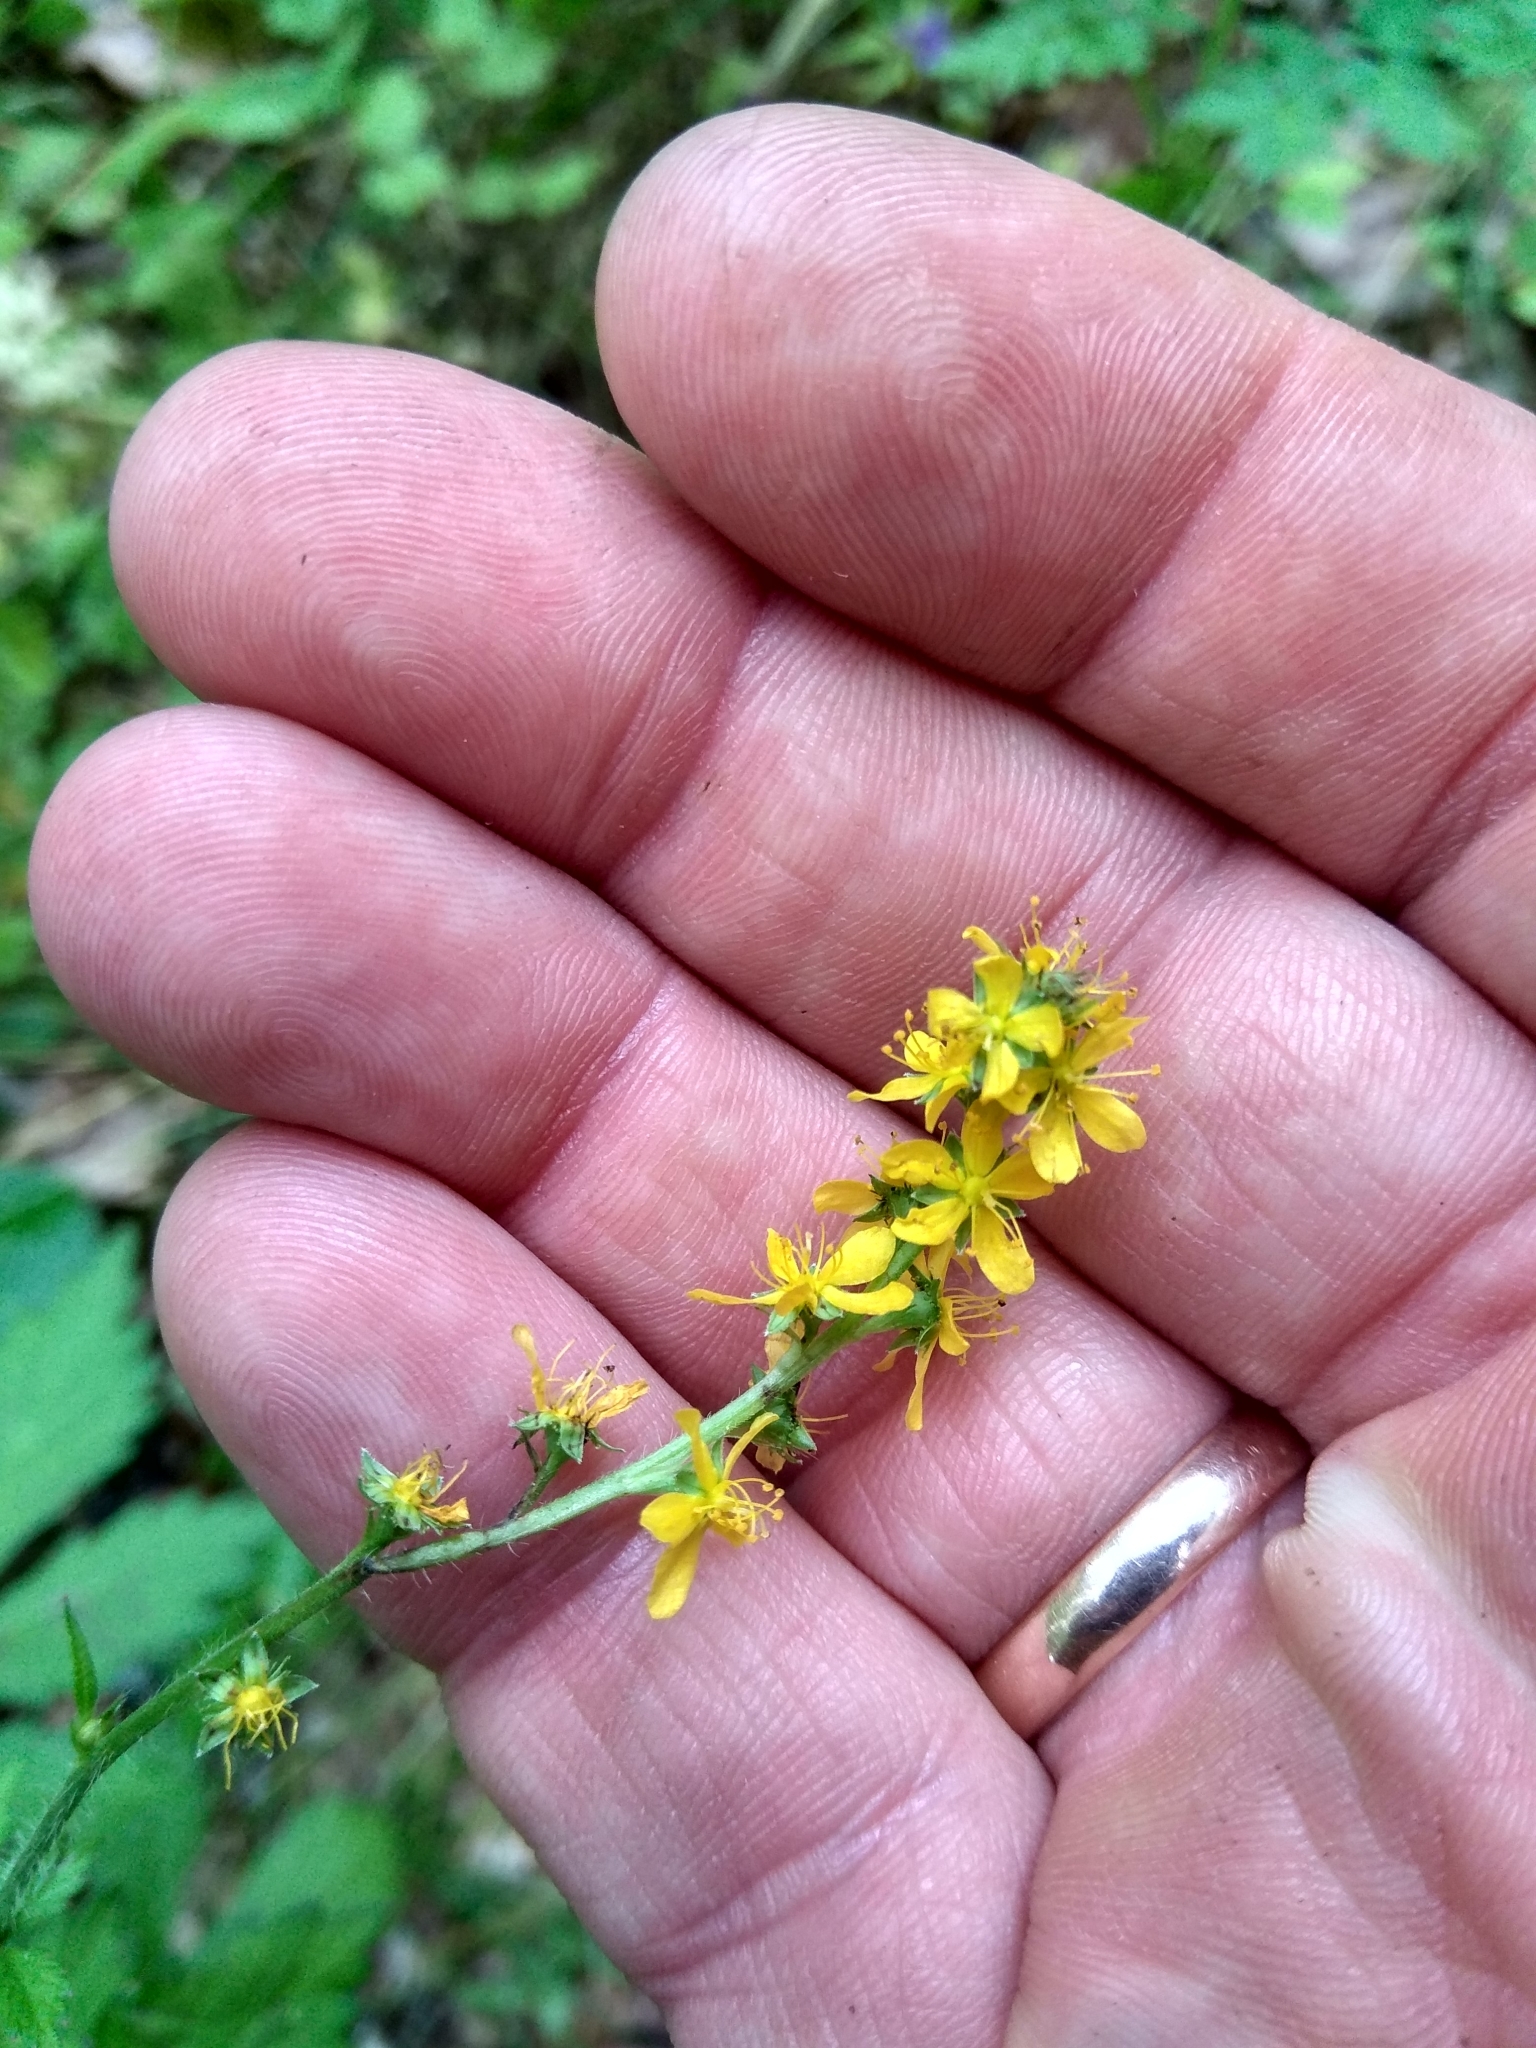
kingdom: Plantae
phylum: Tracheophyta
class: Magnoliopsida
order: Rosales
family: Rosaceae
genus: Agrimonia
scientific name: Agrimonia pilosa
